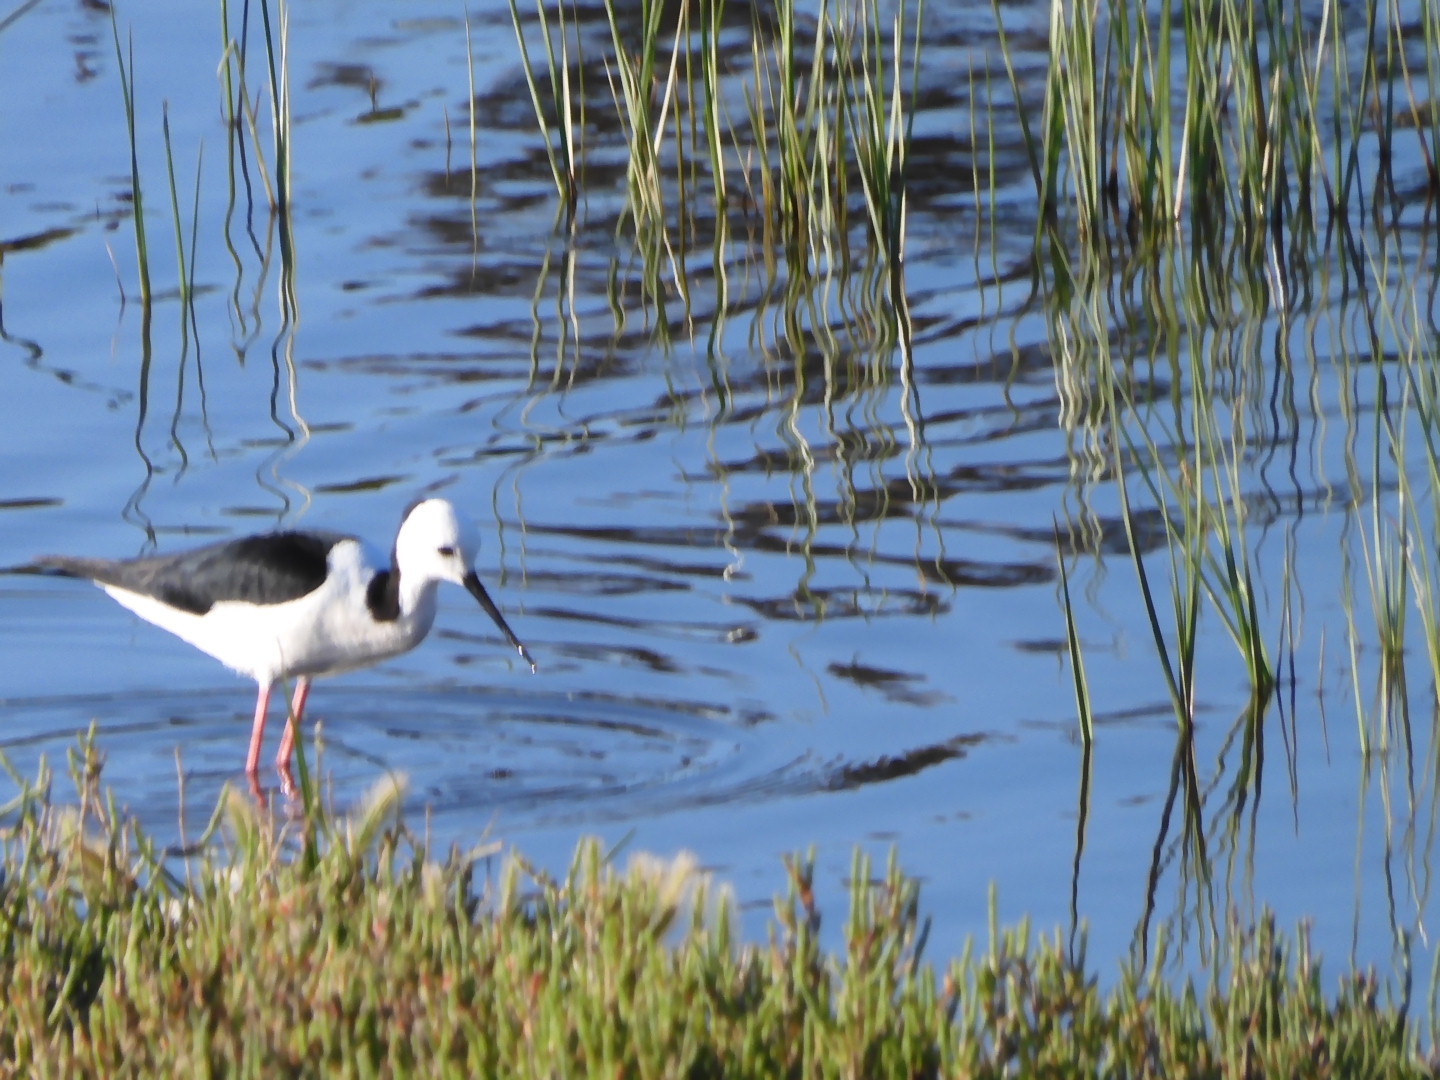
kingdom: Animalia
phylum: Chordata
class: Aves
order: Charadriiformes
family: Recurvirostridae
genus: Himantopus
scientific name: Himantopus leucocephalus
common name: White-headed stilt
